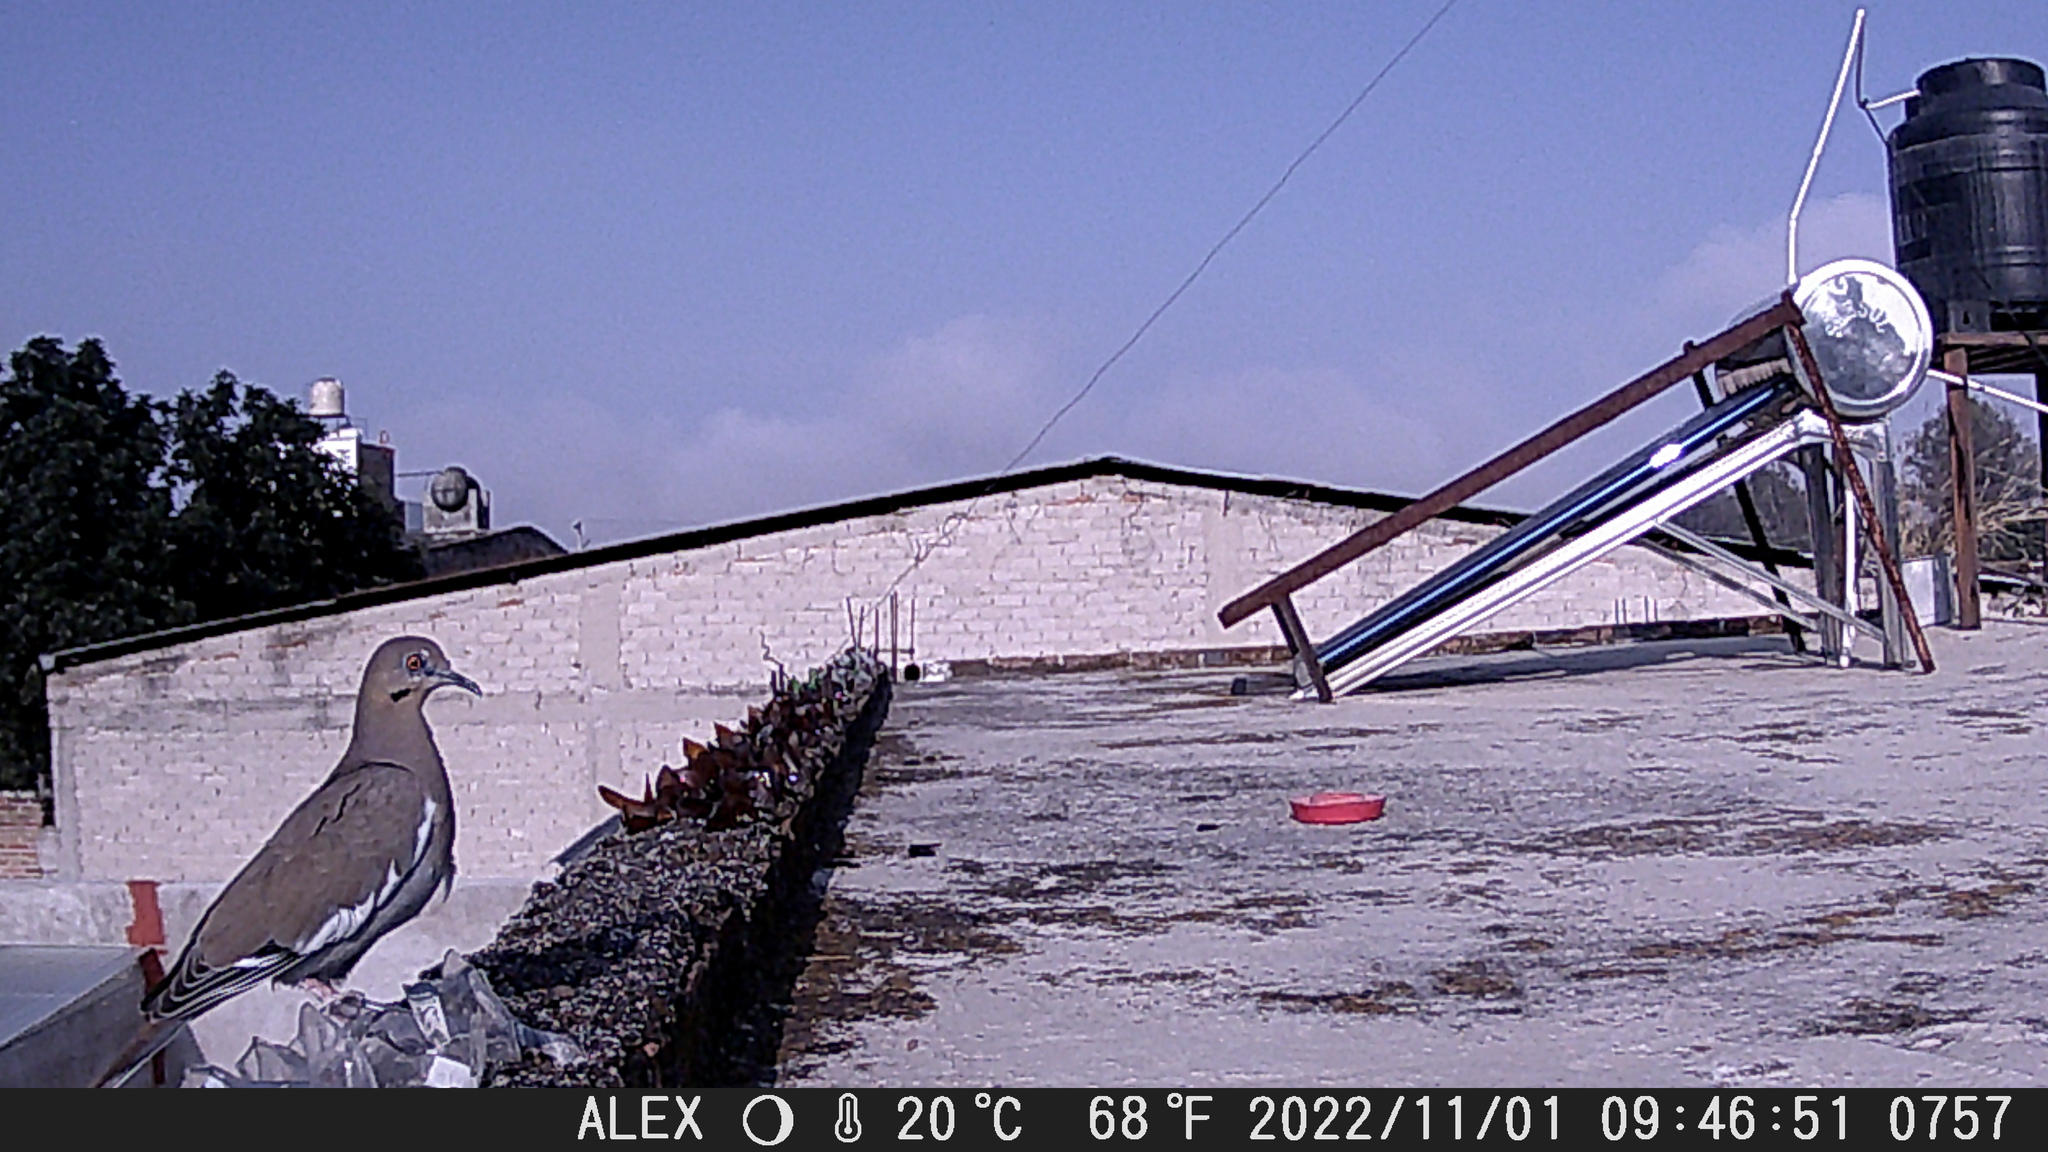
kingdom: Animalia
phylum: Chordata
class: Aves
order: Columbiformes
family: Columbidae
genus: Zenaida
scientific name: Zenaida asiatica
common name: White-winged dove
